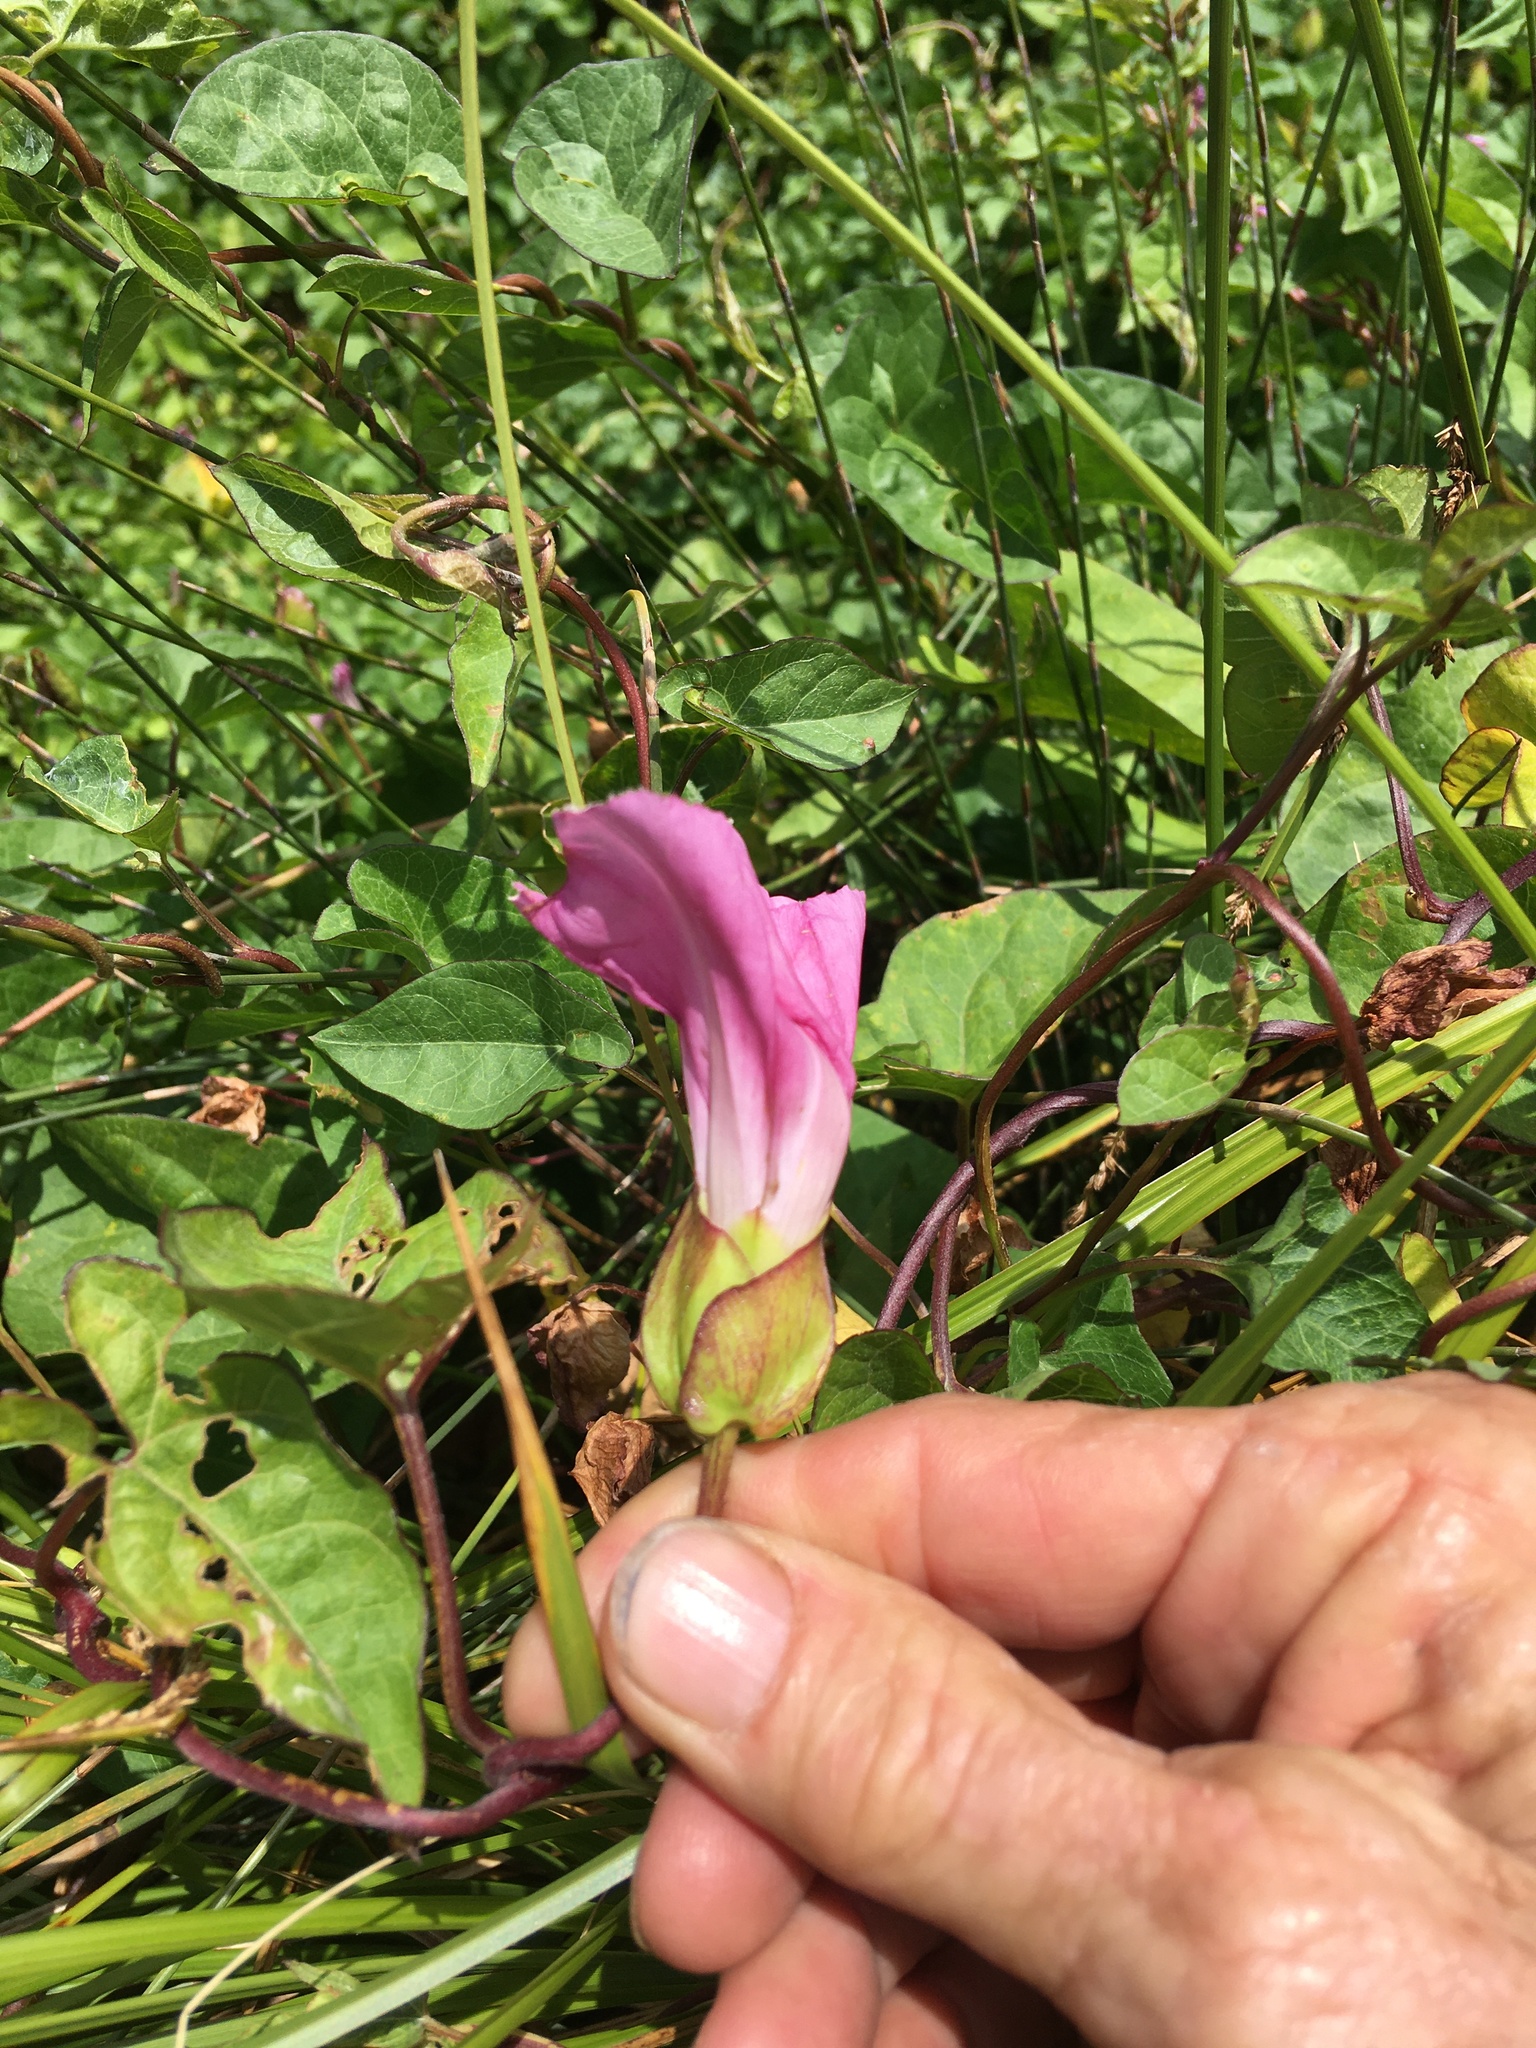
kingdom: Plantae
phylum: Tracheophyta
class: Magnoliopsida
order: Solanales
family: Convolvulaceae
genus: Calystegia
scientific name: Calystegia sepium
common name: Hedge bindweed
